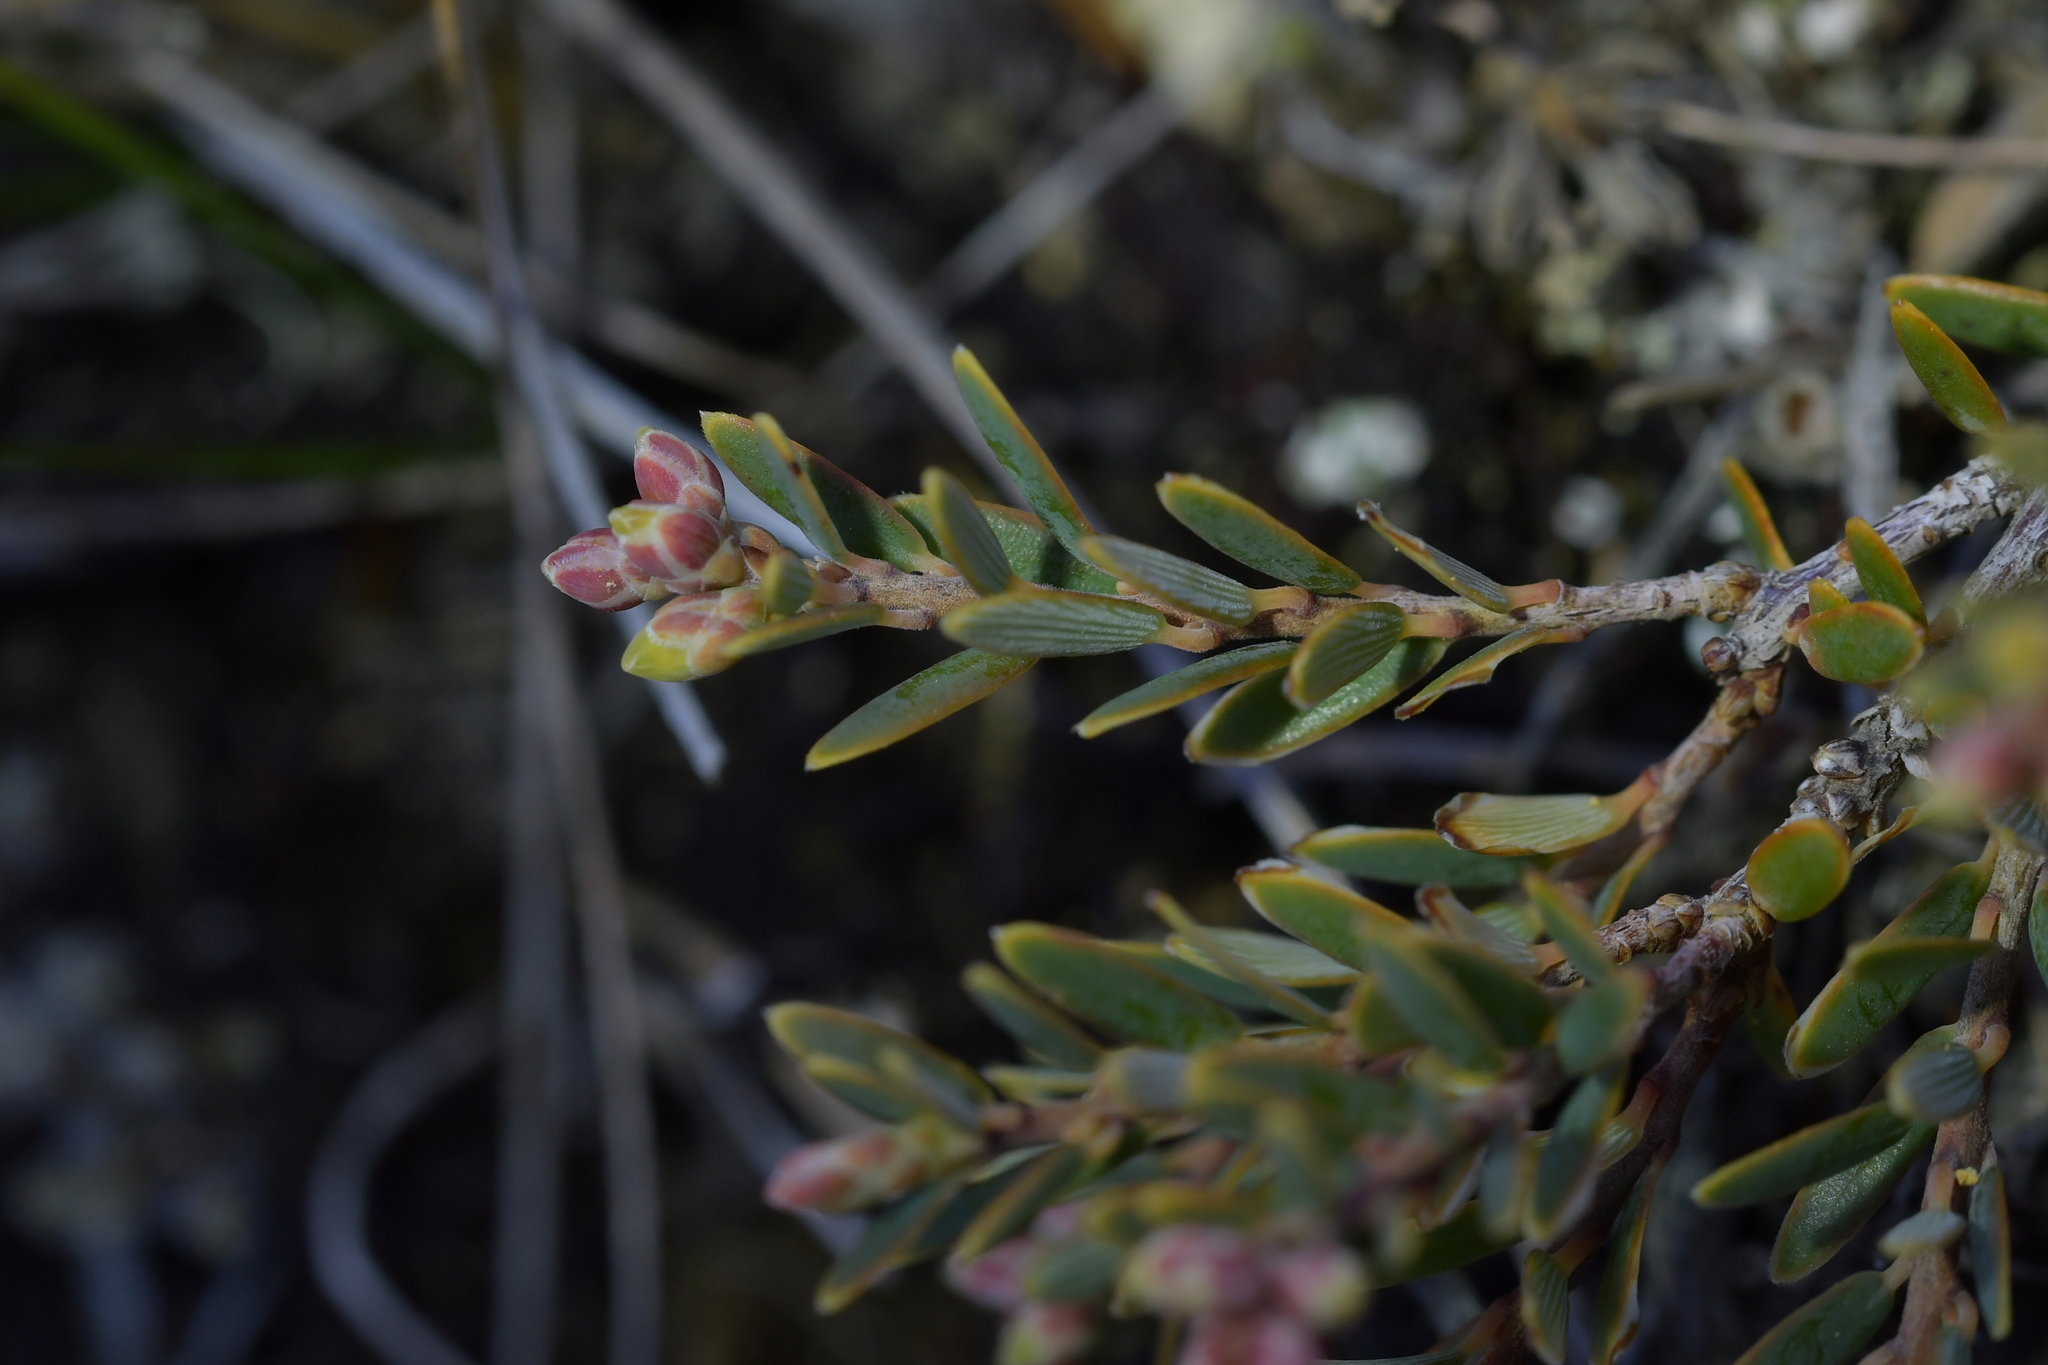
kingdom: Plantae
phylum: Tracheophyta
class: Magnoliopsida
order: Ericales
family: Ericaceae
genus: Acrothamnus
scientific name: Acrothamnus colensoi
